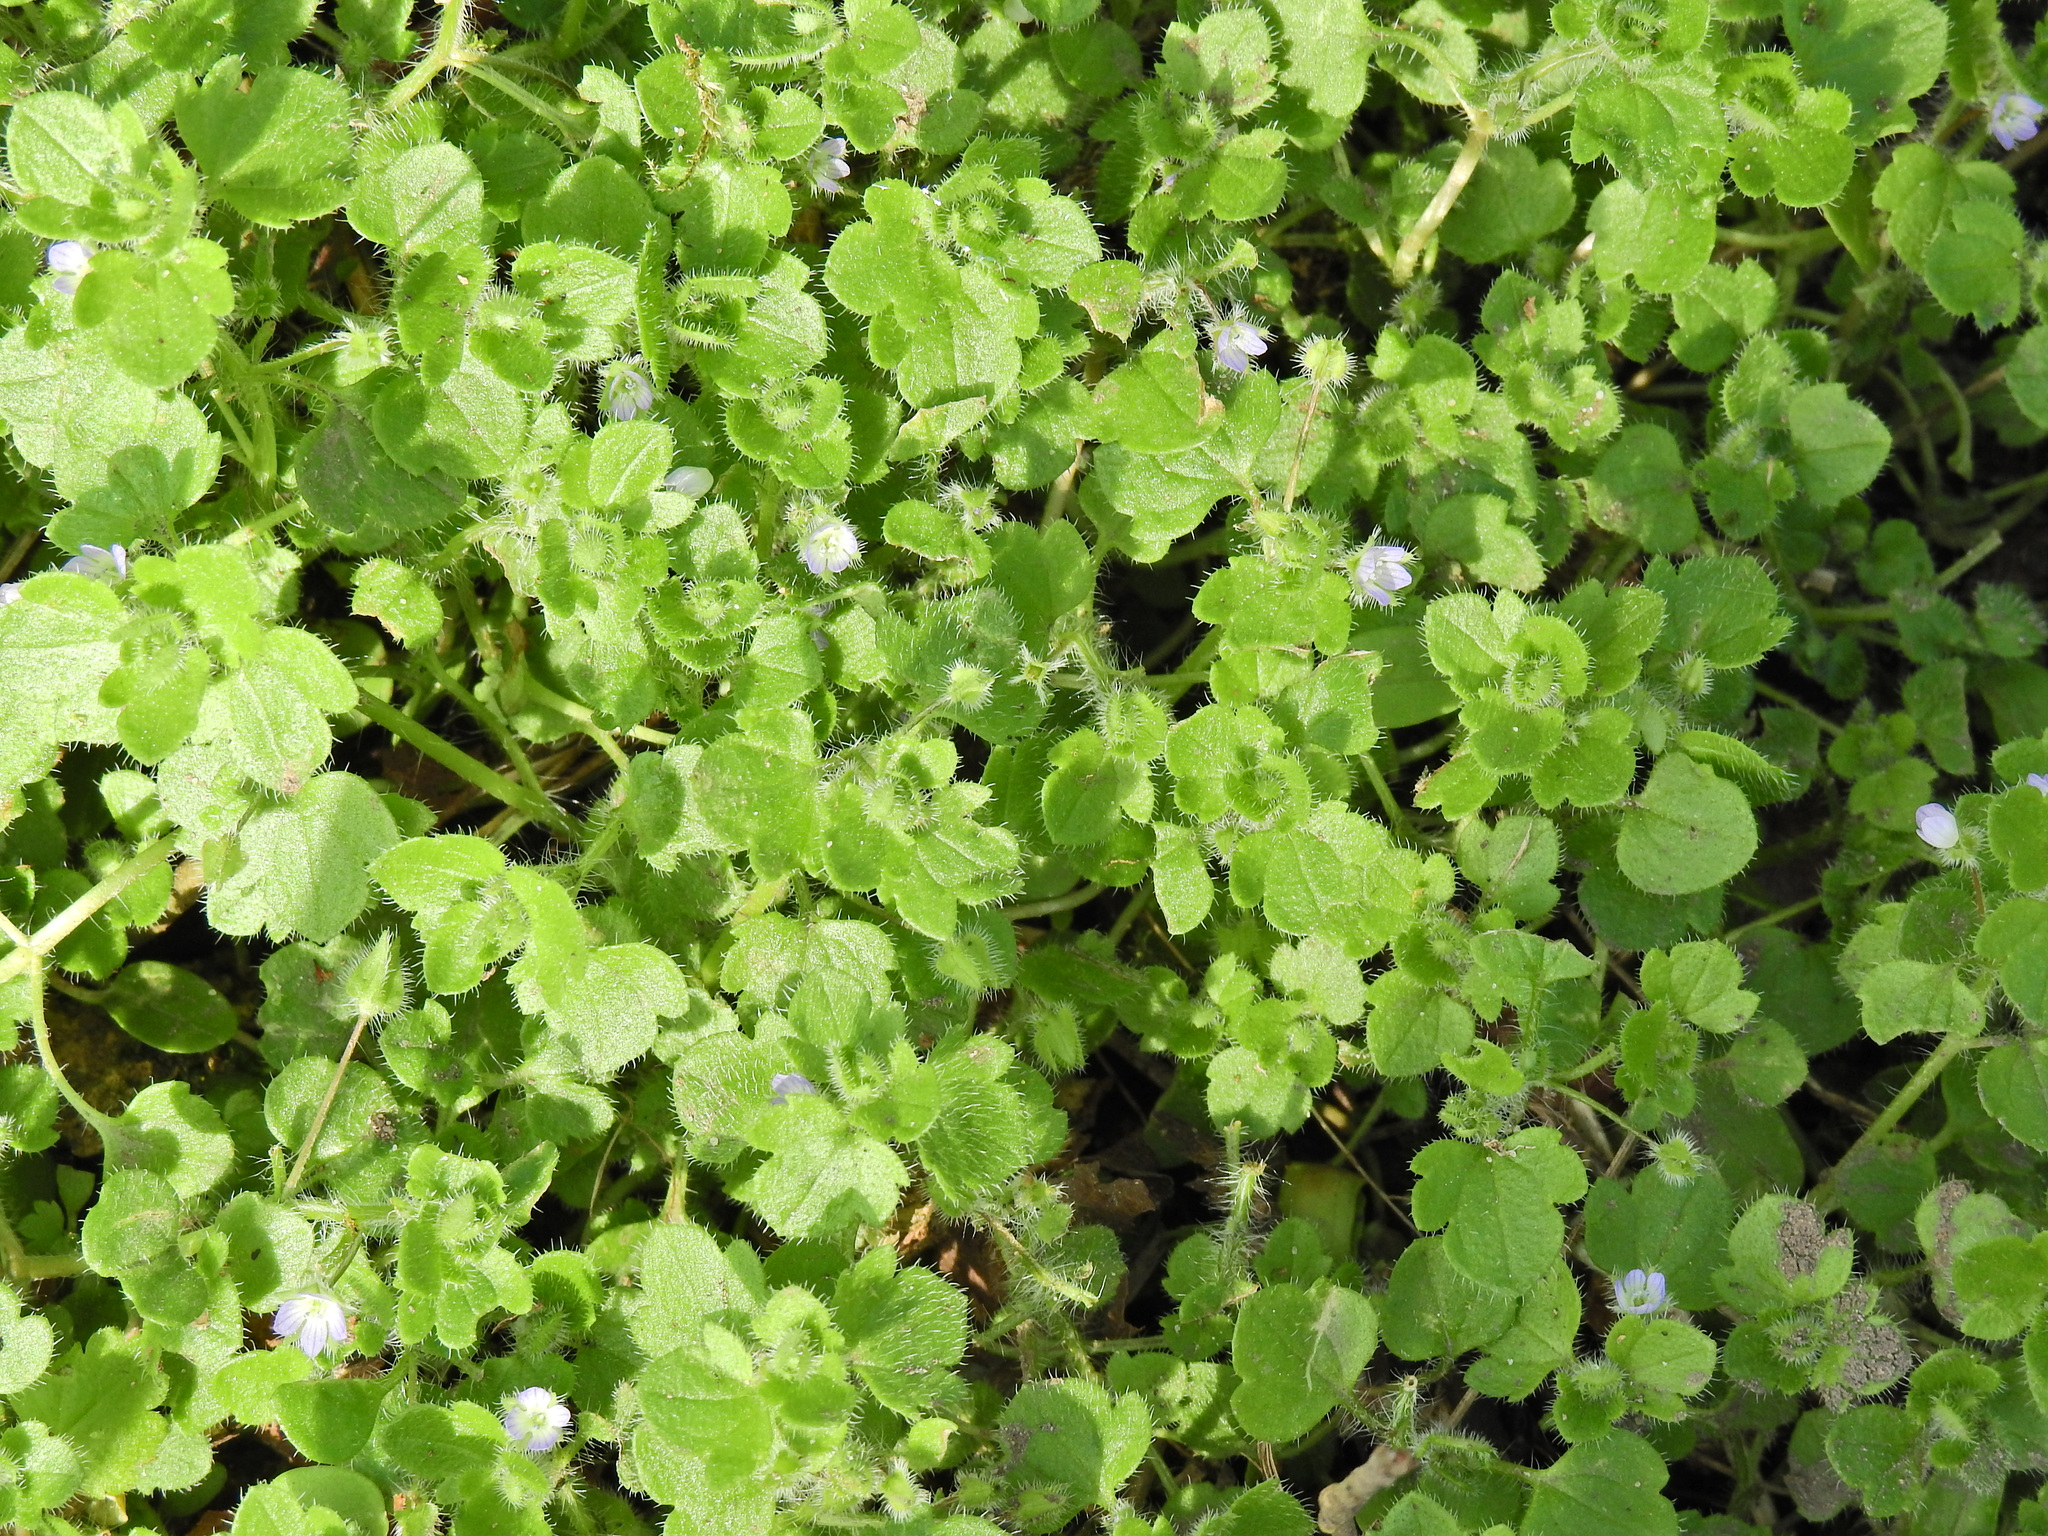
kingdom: Plantae
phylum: Tracheophyta
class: Magnoliopsida
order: Lamiales
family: Plantaginaceae
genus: Veronica
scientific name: Veronica sublobata
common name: False ivy-leaved speedwell
